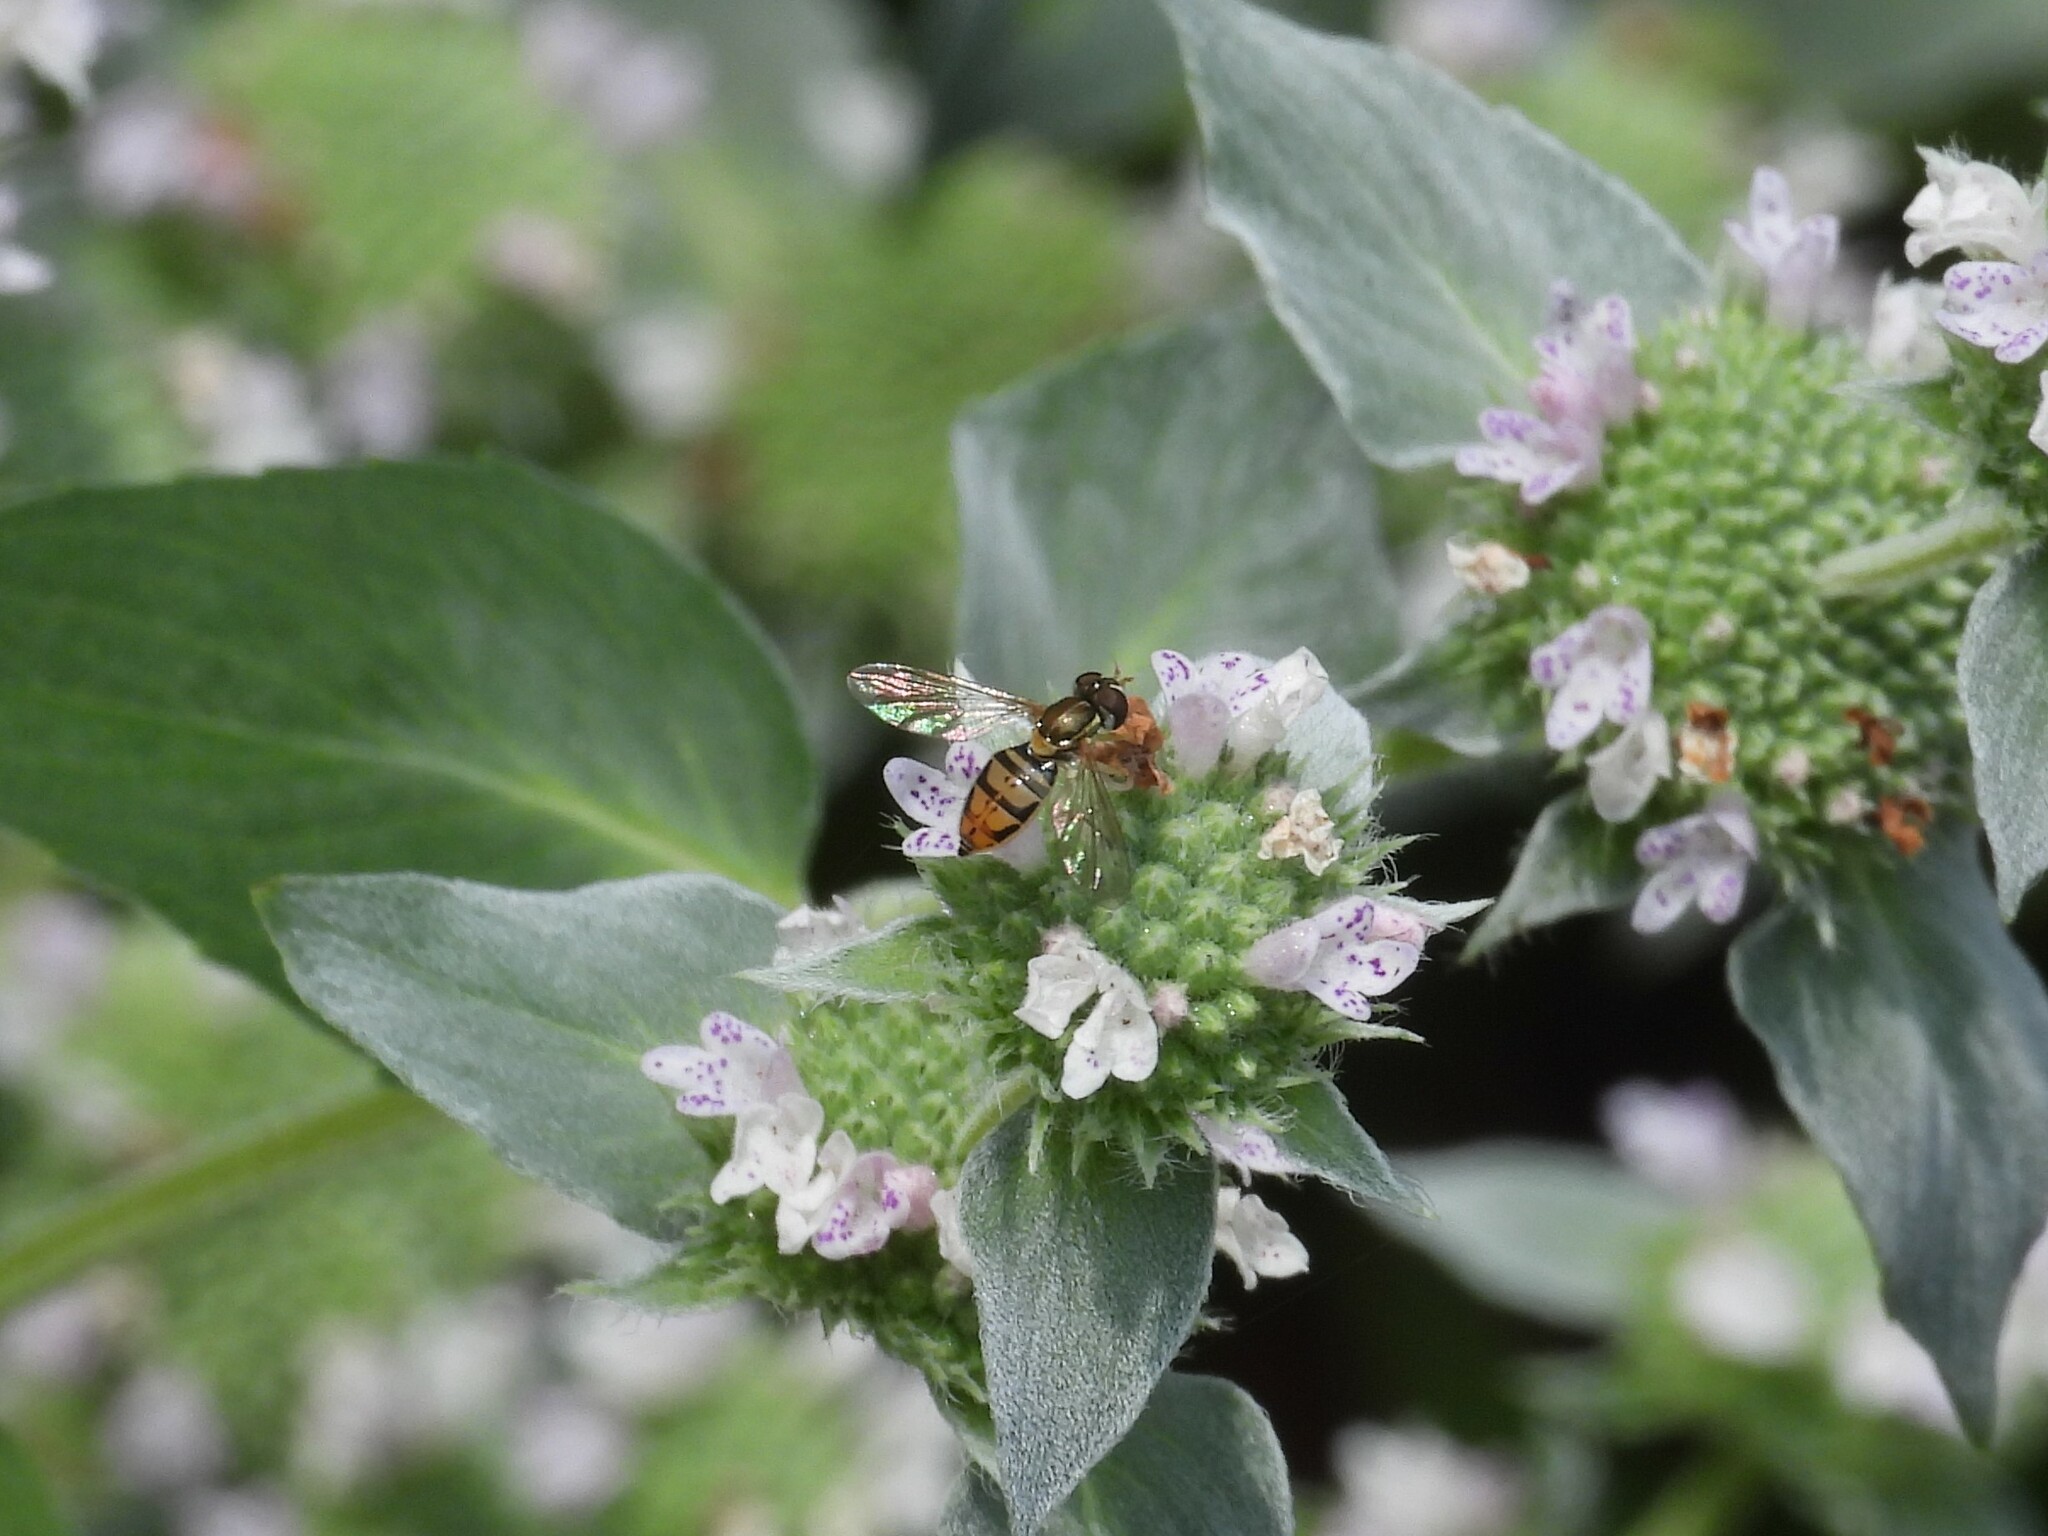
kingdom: Animalia
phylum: Arthropoda
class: Insecta
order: Diptera
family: Syrphidae
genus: Toxomerus
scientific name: Toxomerus marginatus
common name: Syrphid fly
